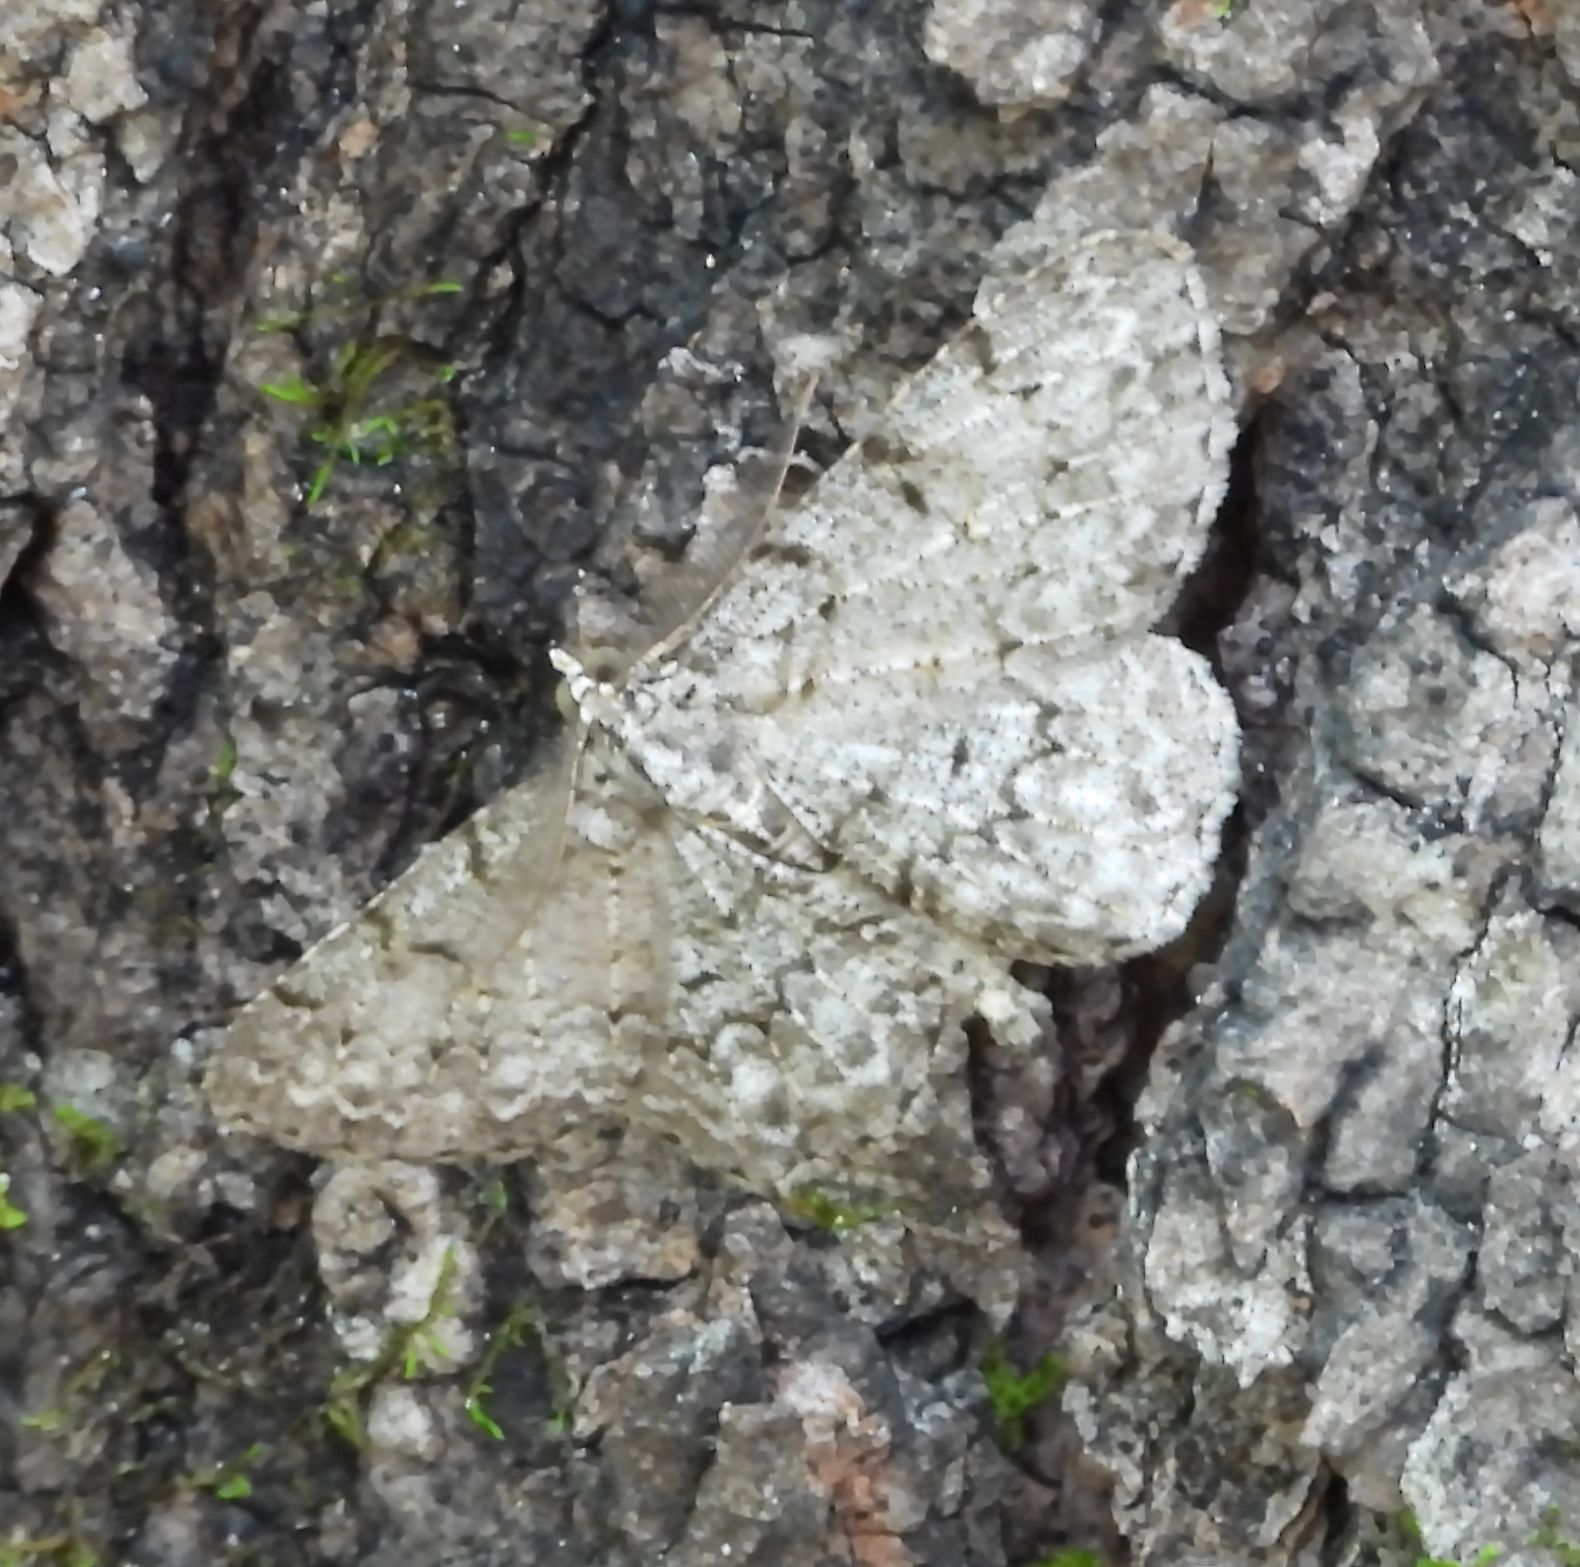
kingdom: Animalia
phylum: Arthropoda
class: Insecta
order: Lepidoptera
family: Geometridae
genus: Protoboarmia
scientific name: Protoboarmia porcelaria
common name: Porcelain gray
